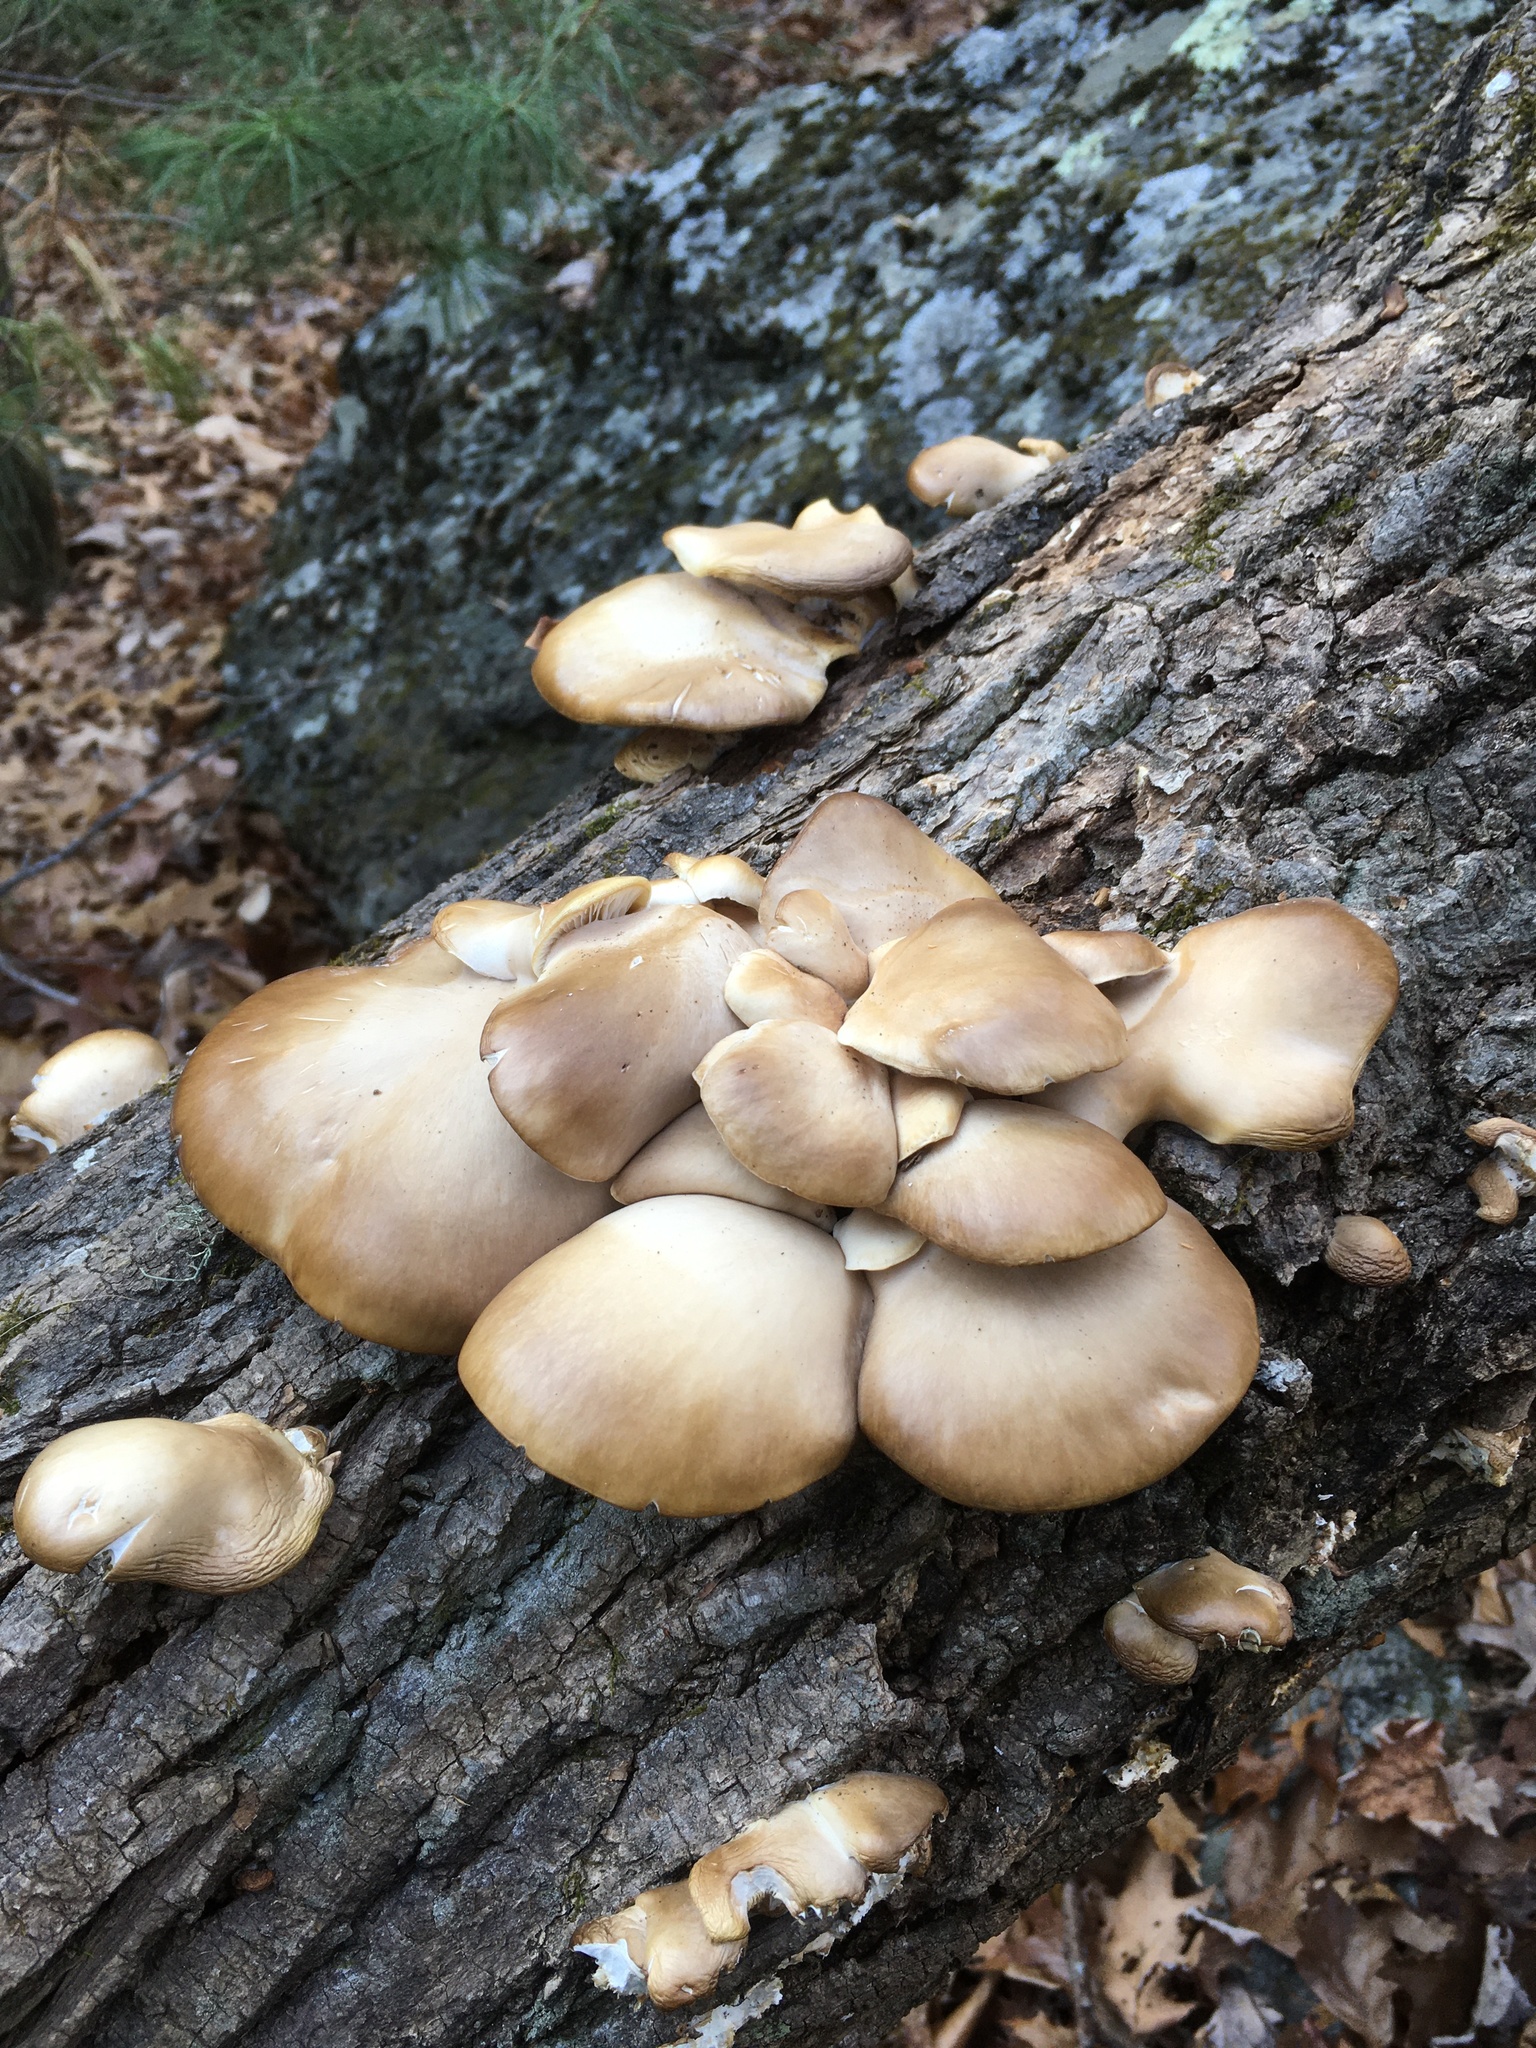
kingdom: Fungi
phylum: Basidiomycota
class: Agaricomycetes
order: Agaricales
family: Pleurotaceae
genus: Pleurotus
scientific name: Pleurotus ostreatus
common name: Oyster mushroom
